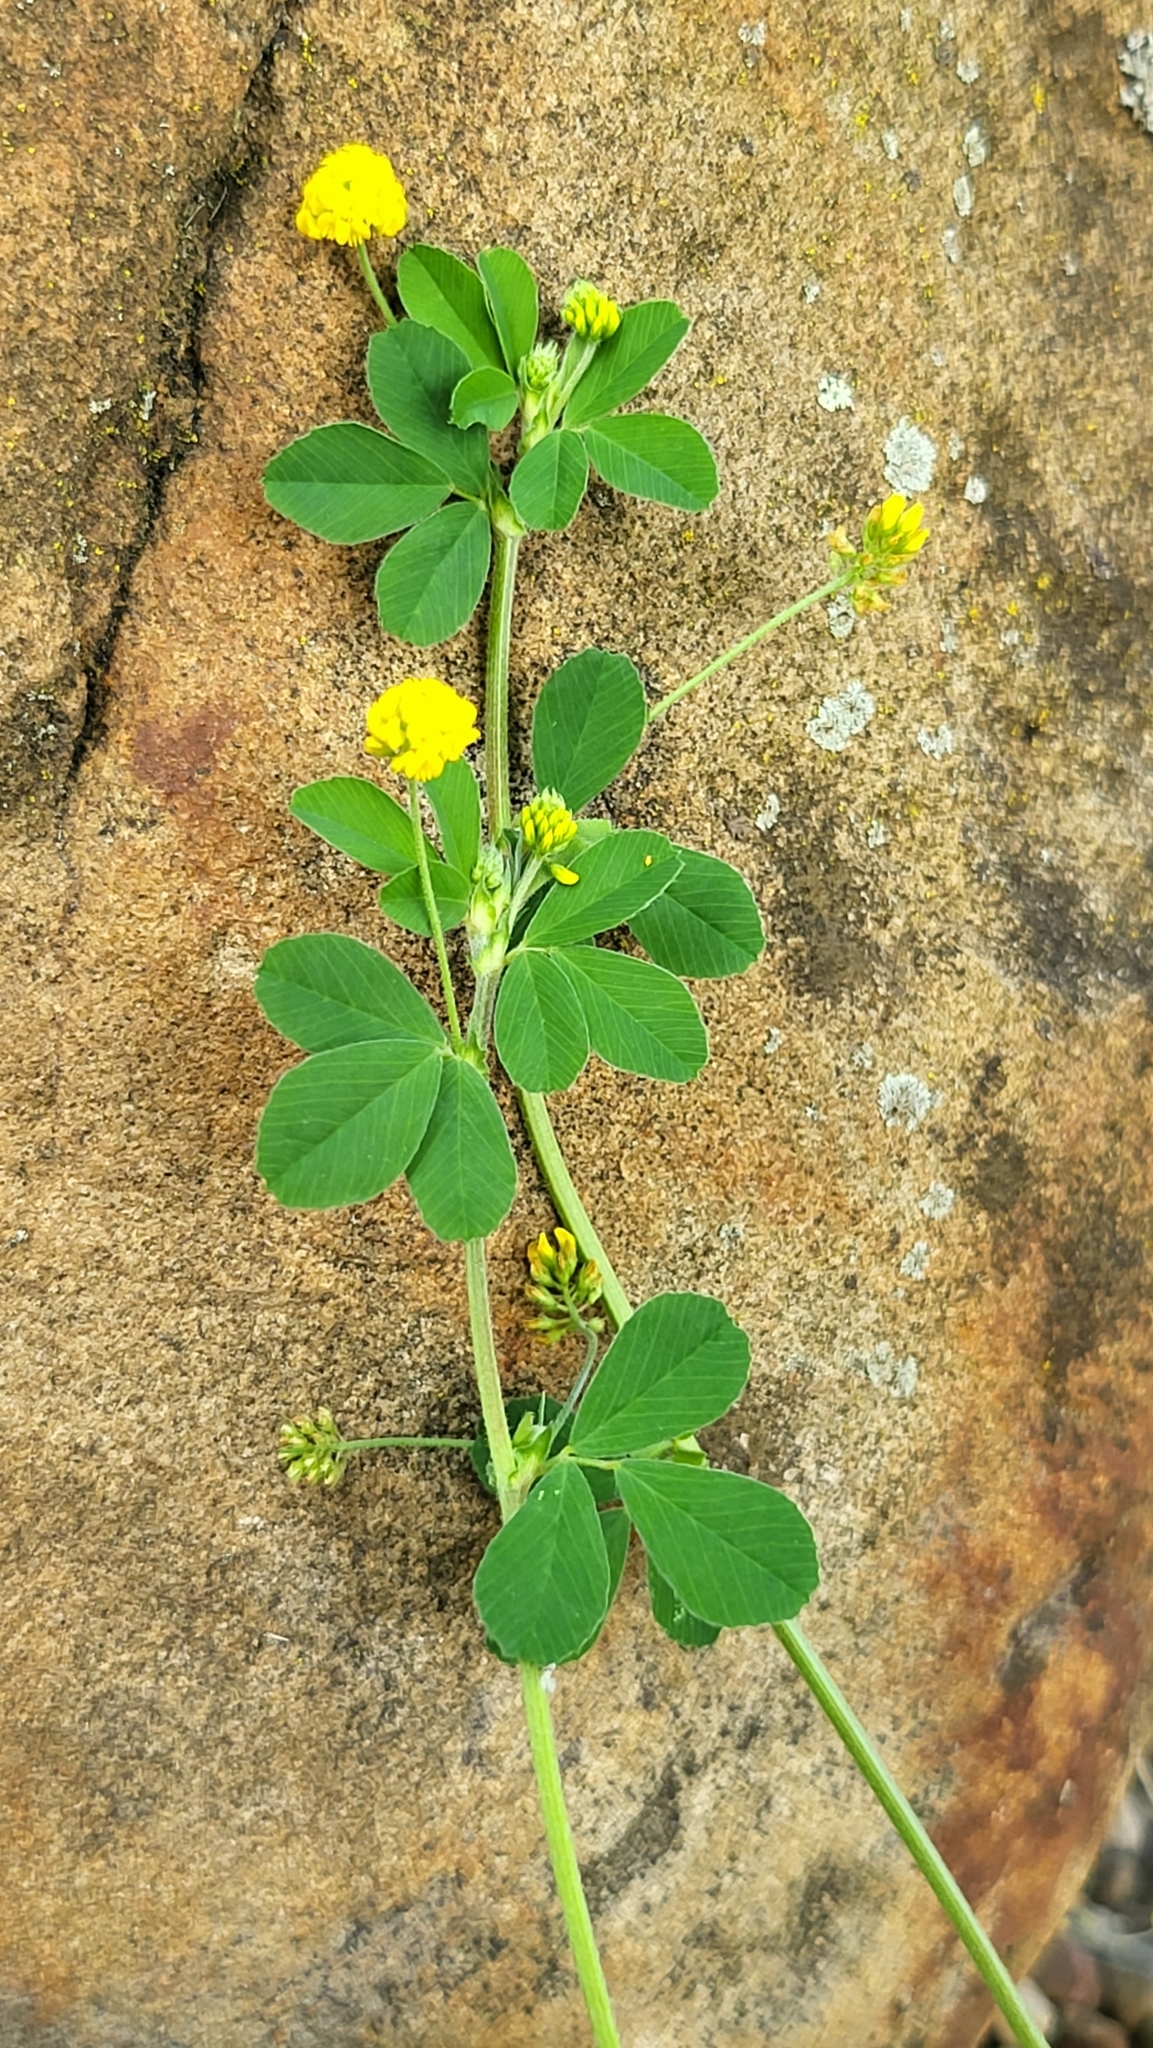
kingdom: Plantae
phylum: Tracheophyta
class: Magnoliopsida
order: Fabales
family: Fabaceae
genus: Medicago
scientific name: Medicago lupulina
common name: Black medick
